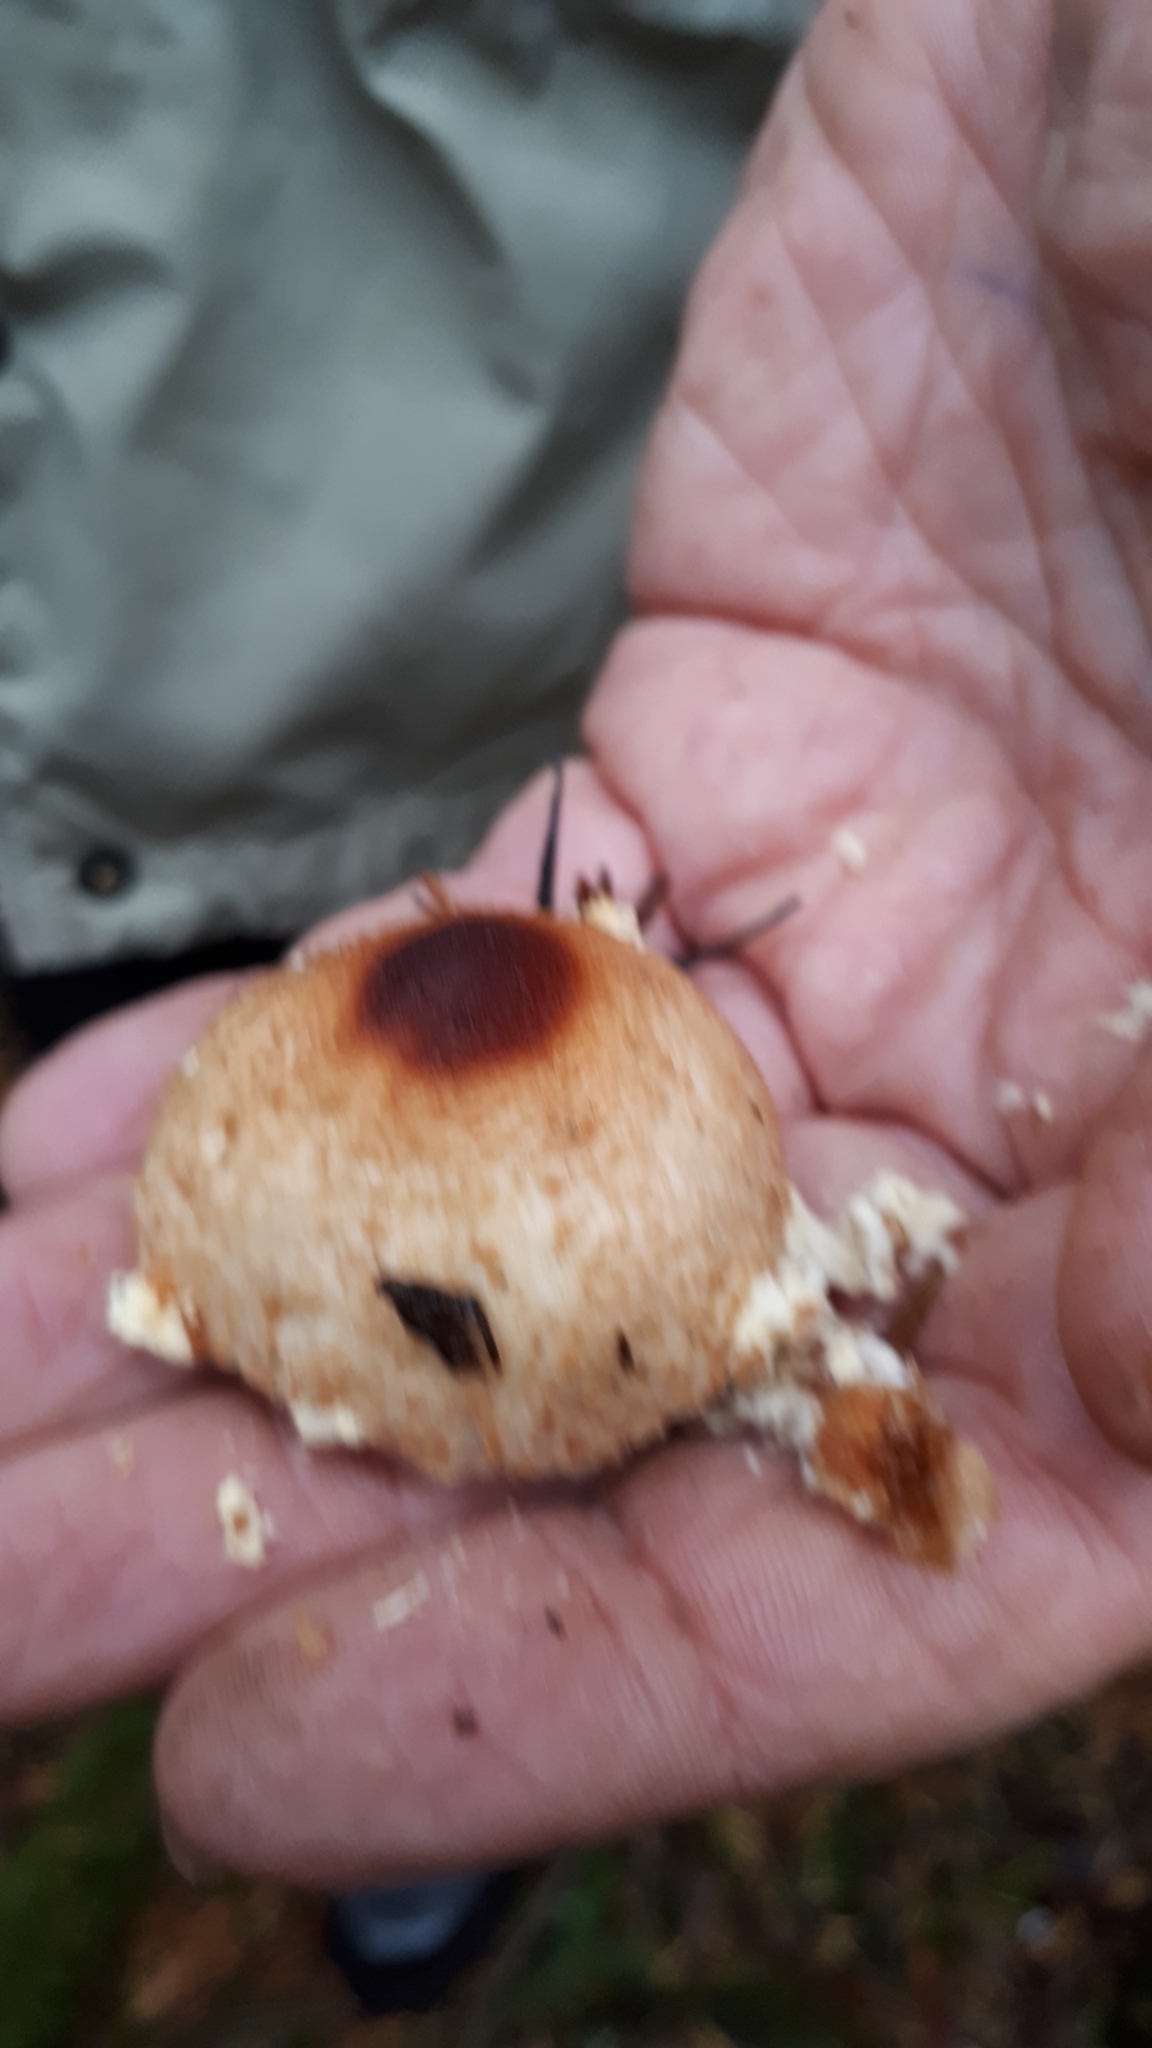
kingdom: Fungi
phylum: Basidiomycota
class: Agaricomycetes
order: Agaricales
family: Agaricaceae
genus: Lepiota
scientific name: Lepiota magnispora
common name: Yellowfoot dapperling
